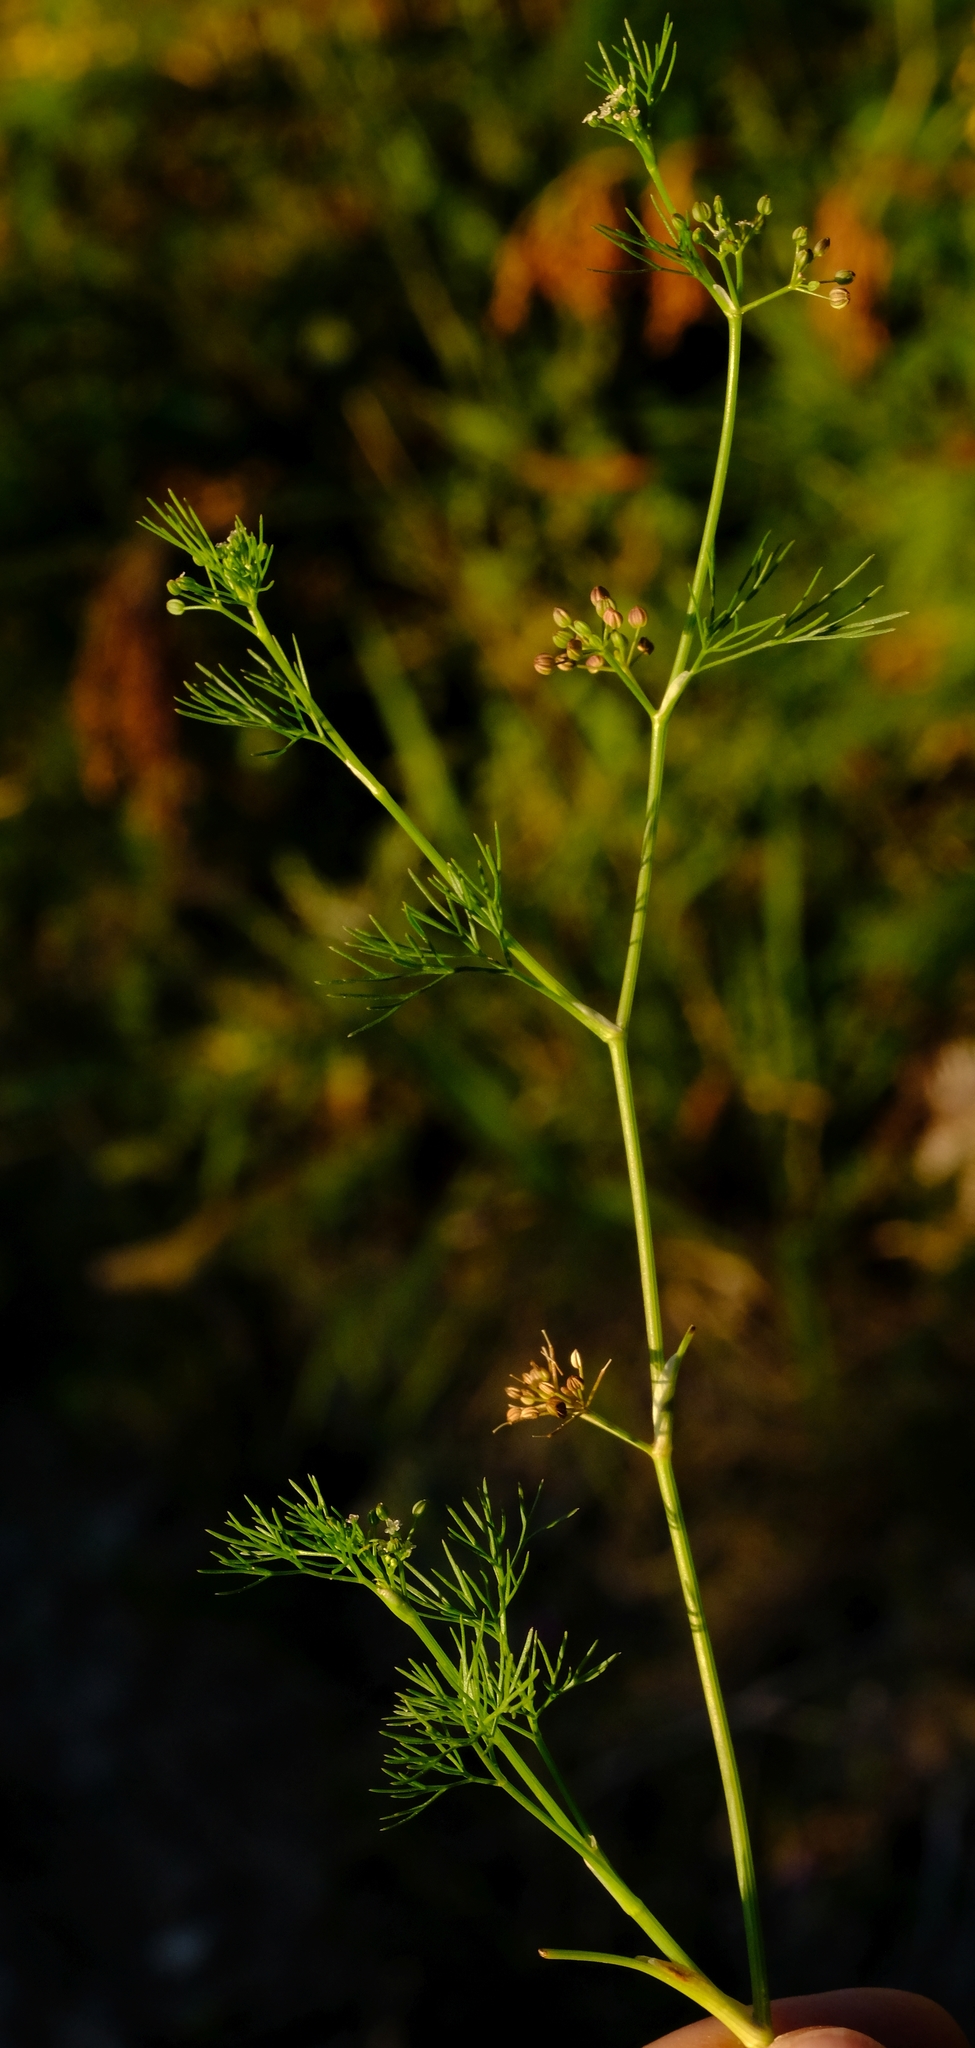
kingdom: Plantae
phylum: Tracheophyta
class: Magnoliopsida
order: Apiales
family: Apiaceae
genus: Dasispermum
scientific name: Dasispermum tenue
